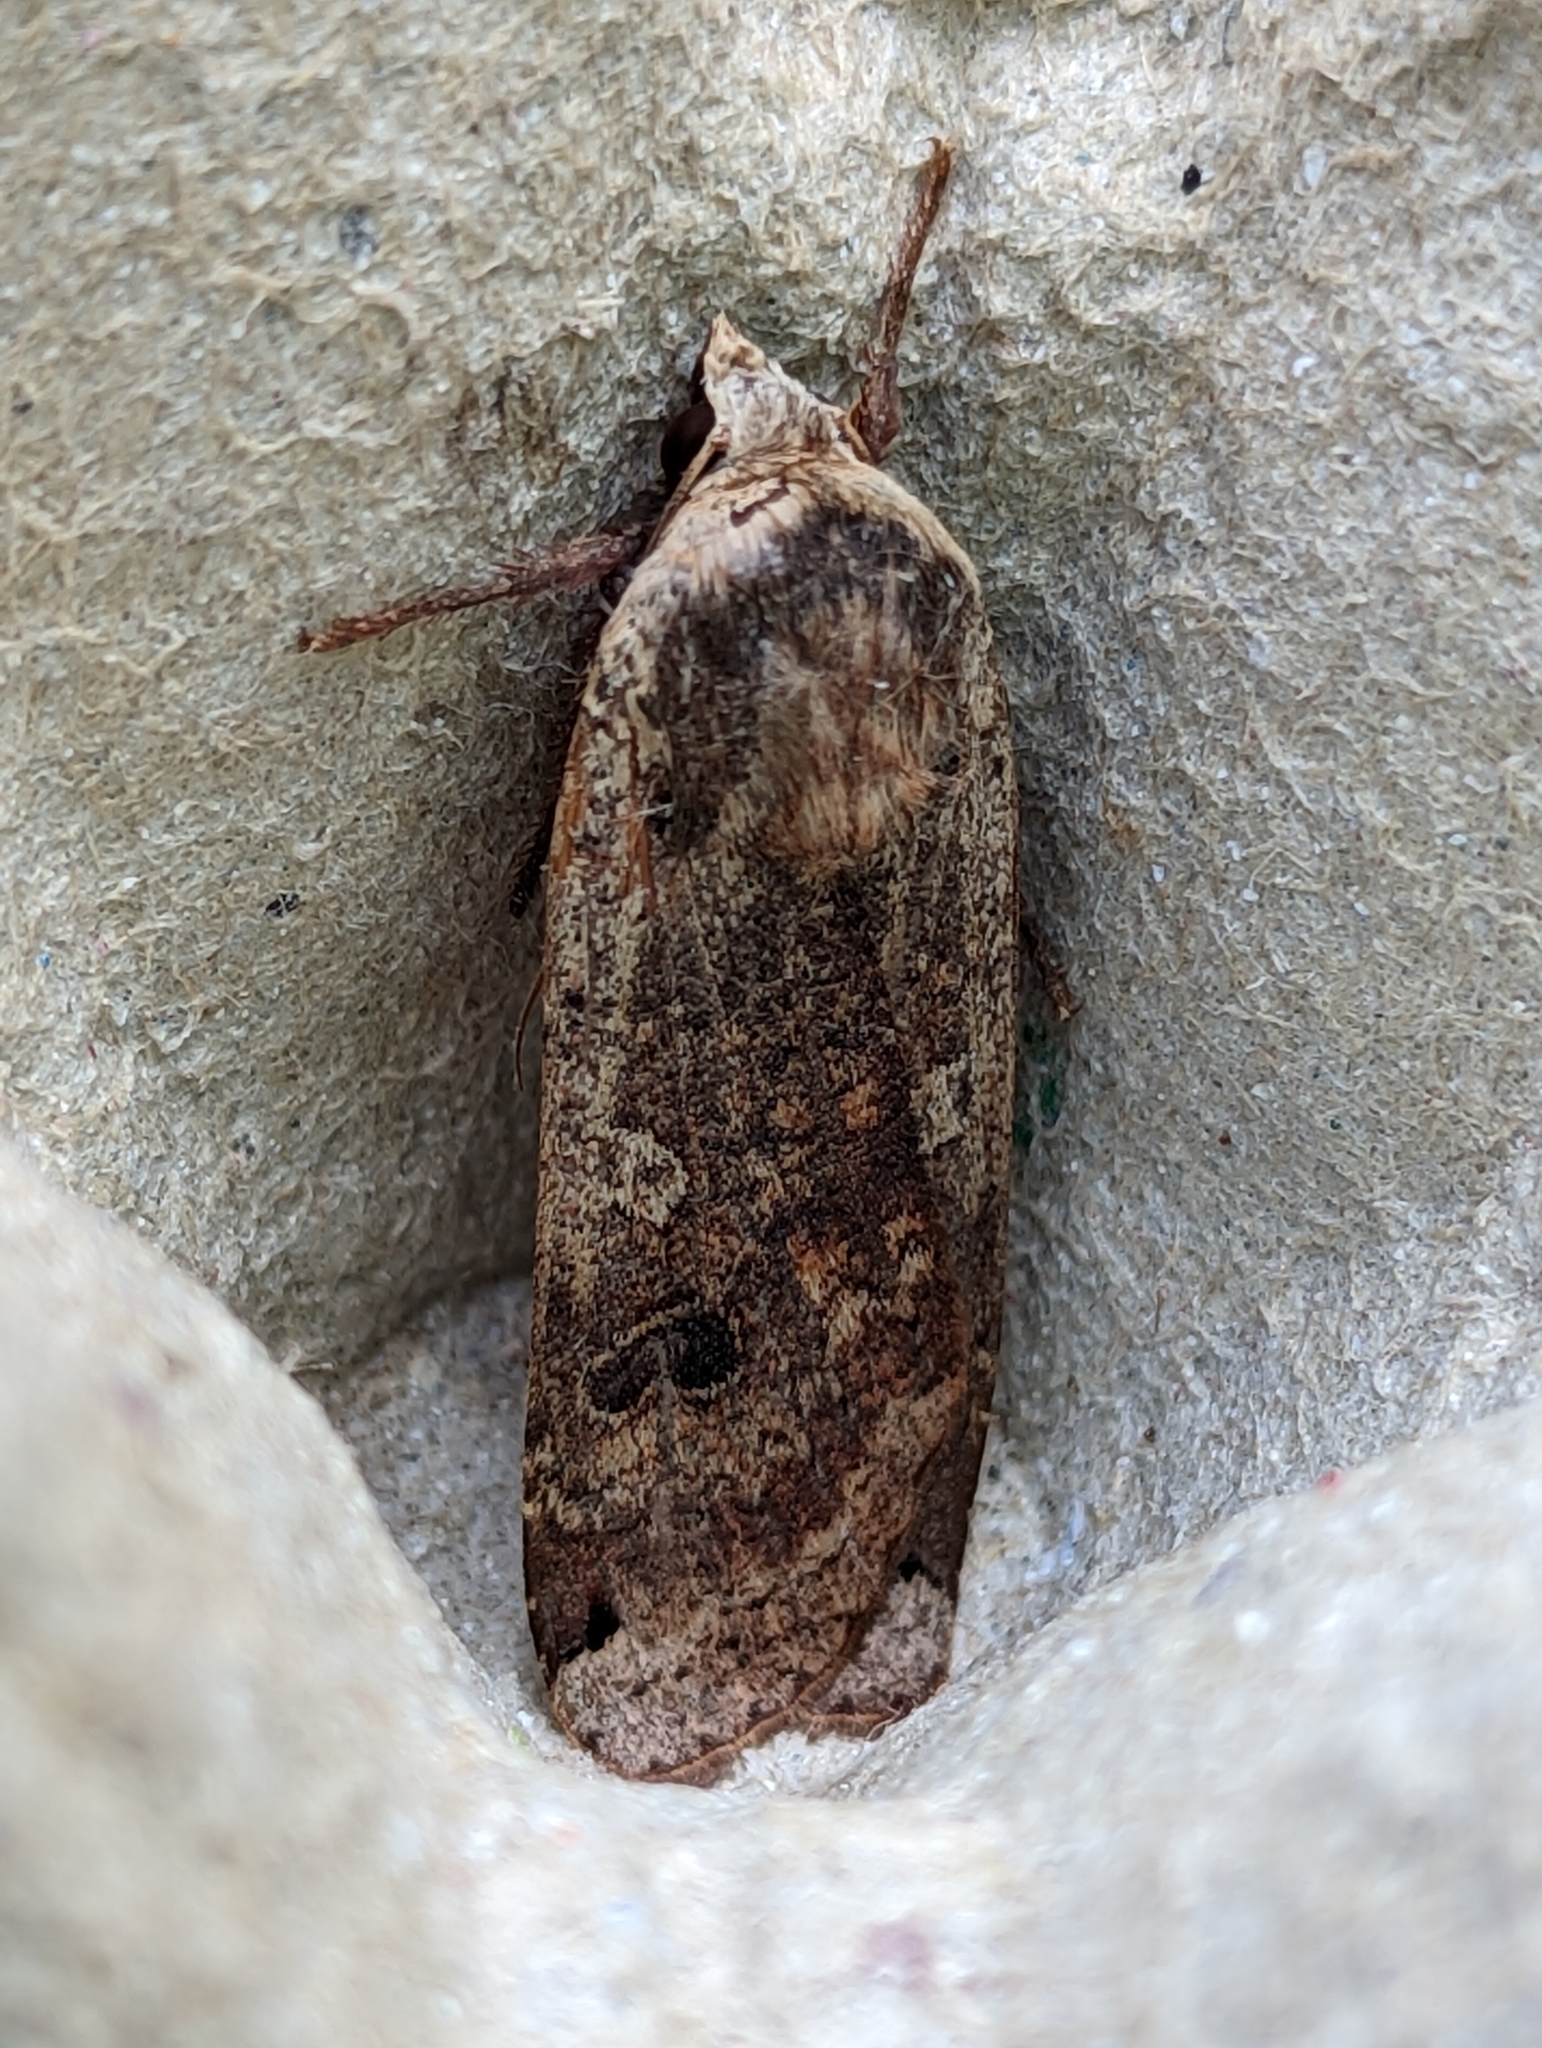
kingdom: Animalia
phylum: Arthropoda
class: Insecta
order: Lepidoptera
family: Noctuidae
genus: Noctua
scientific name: Noctua pronuba
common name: Large yellow underwing
